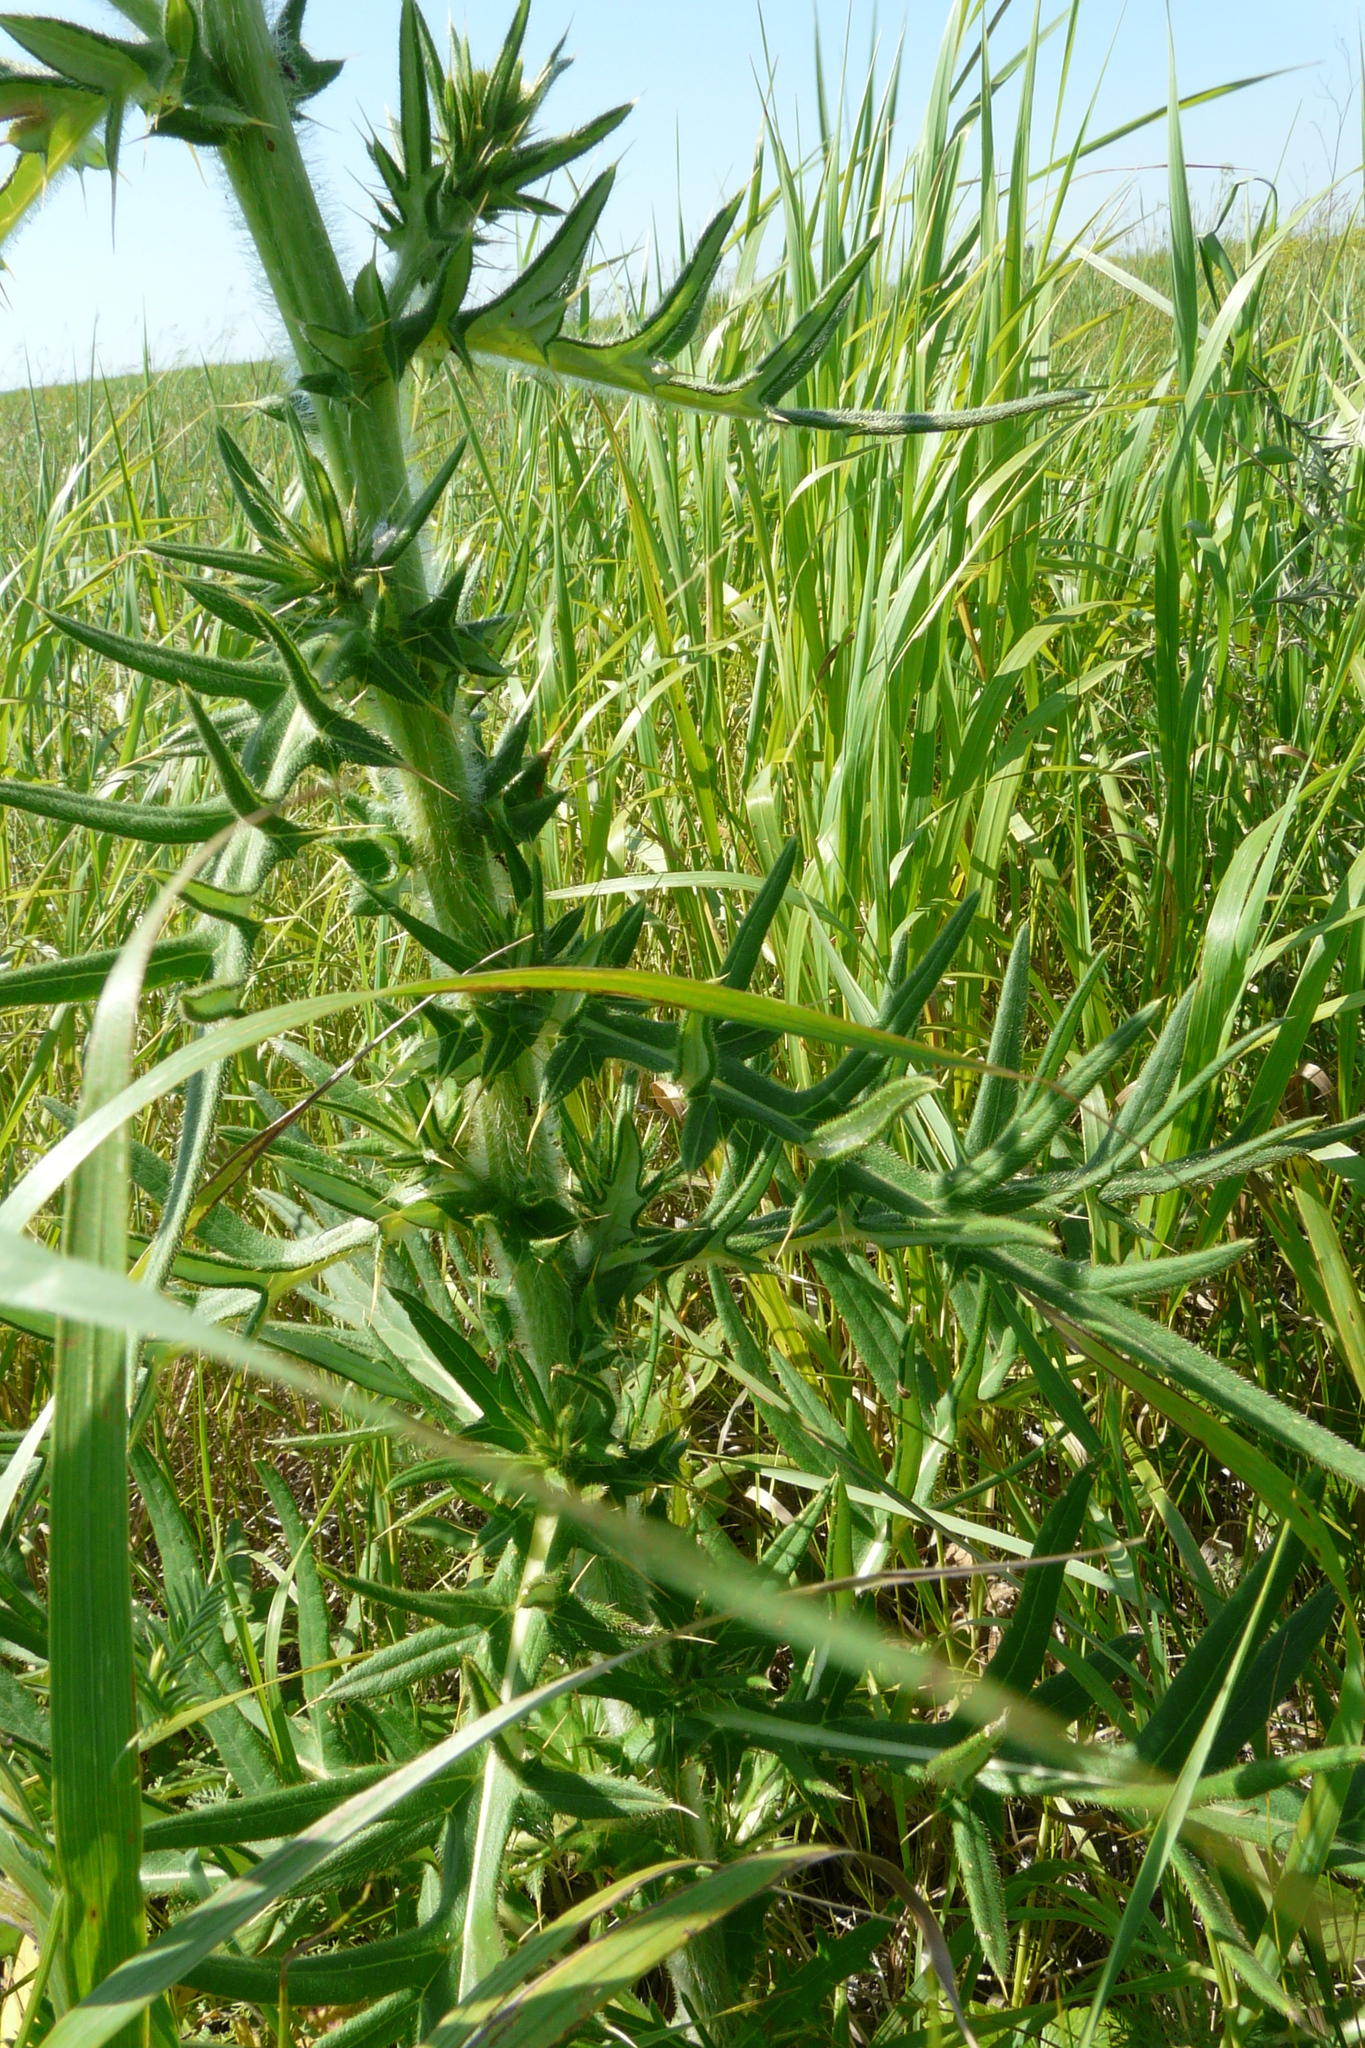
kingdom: Plantae
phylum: Tracheophyta
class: Magnoliopsida
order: Asterales
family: Asteraceae
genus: Cirsium
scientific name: Cirsium serrulatum
